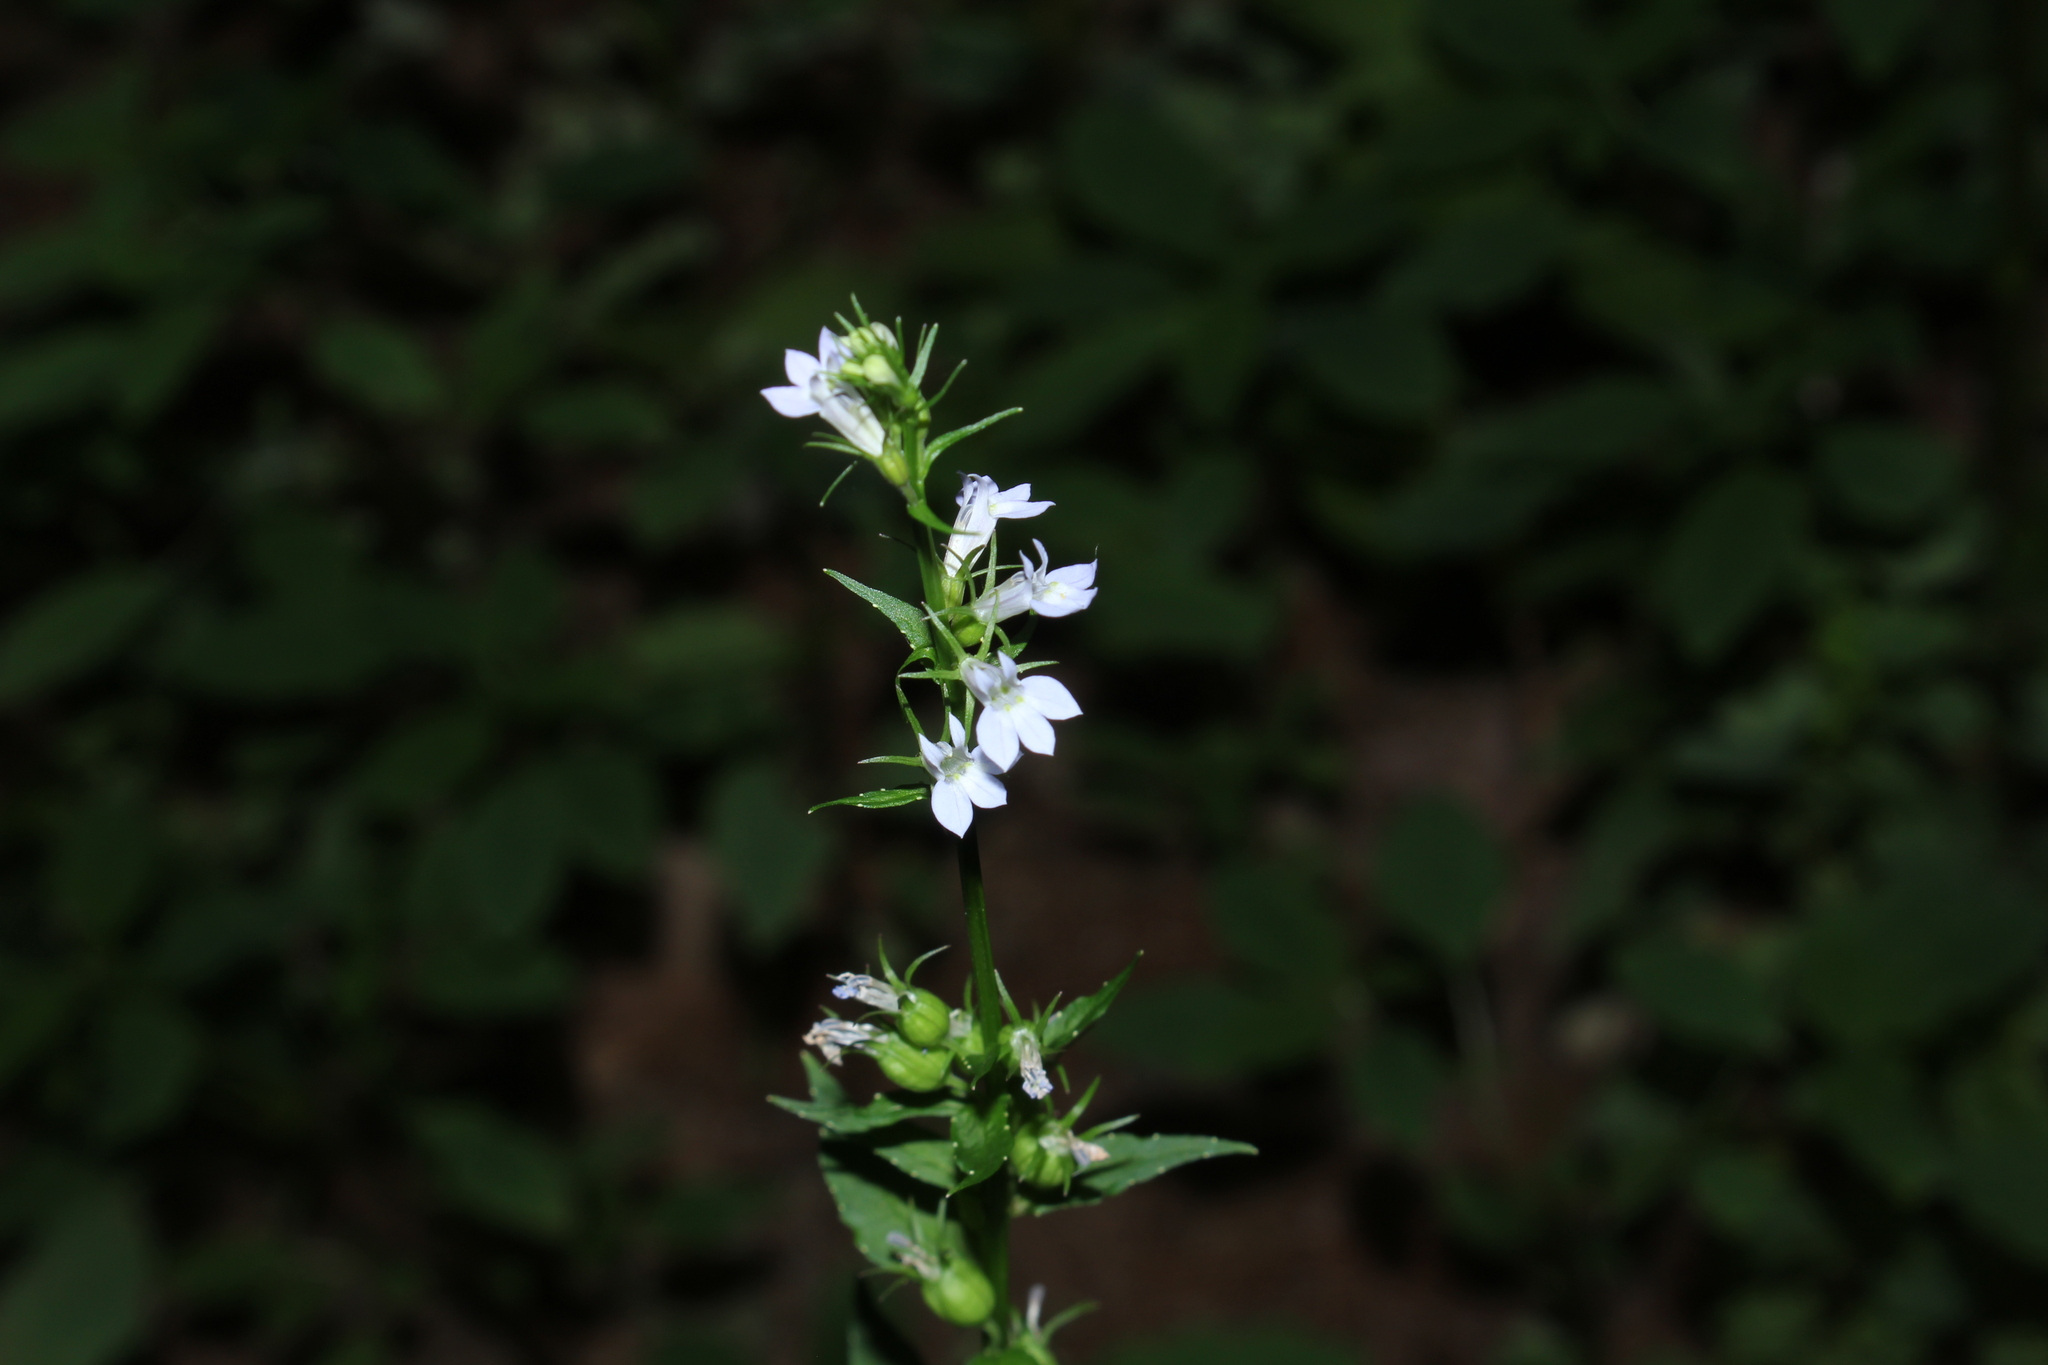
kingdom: Plantae
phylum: Tracheophyta
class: Magnoliopsida
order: Asterales
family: Campanulaceae
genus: Lobelia
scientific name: Lobelia inflata
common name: Indian tobacco
